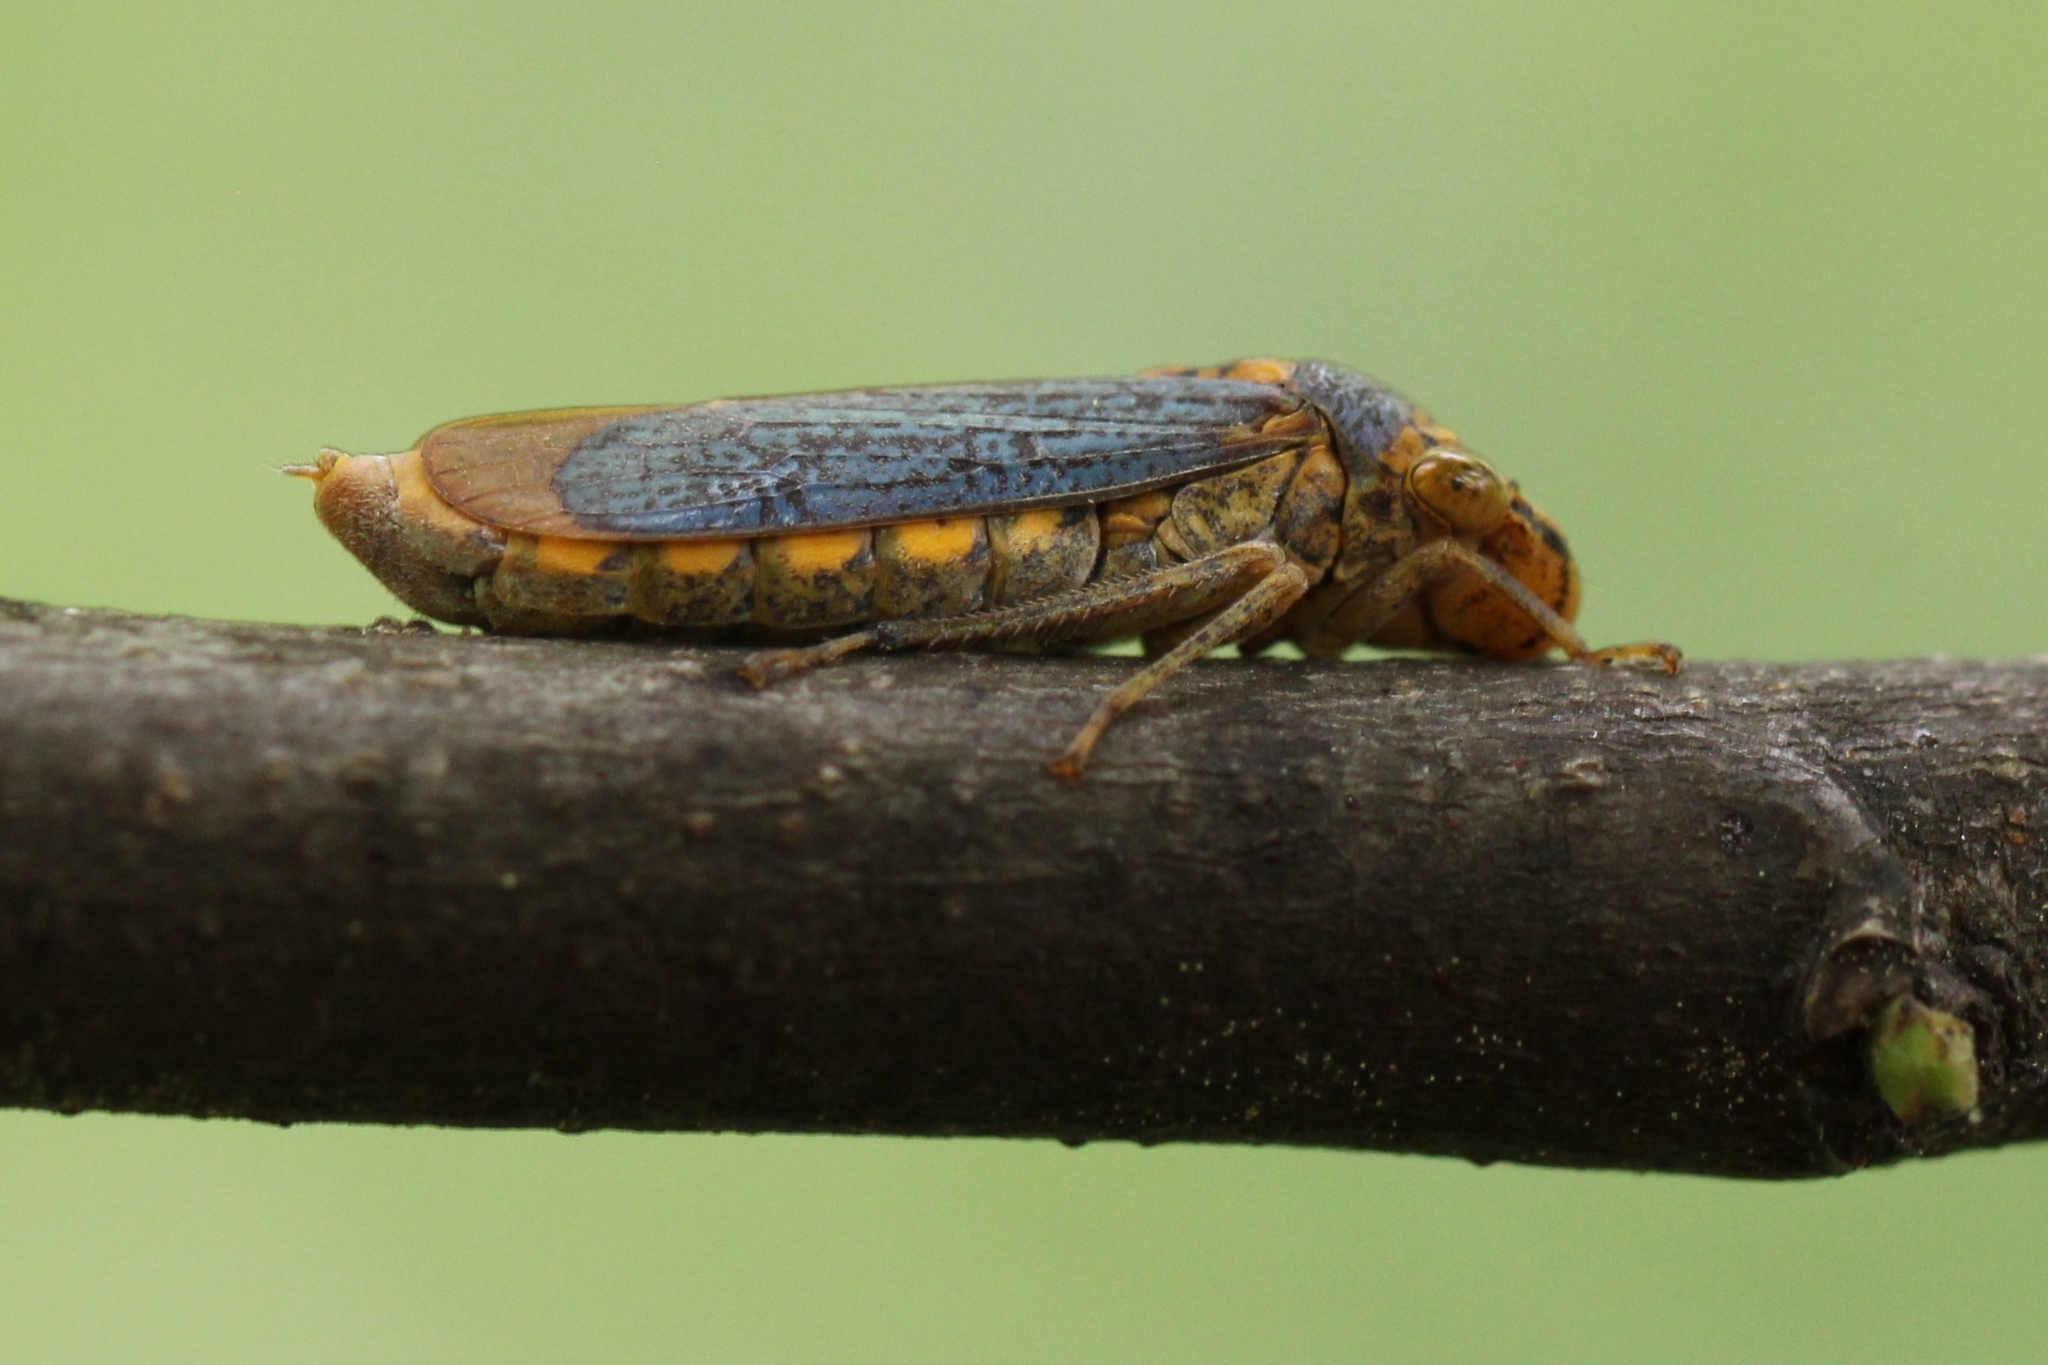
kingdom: Animalia
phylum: Arthropoda
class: Insecta
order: Hemiptera
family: Cicadellidae
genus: Oncometopia
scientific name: Oncometopia orbona
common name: Broad-headed sharpshooter
